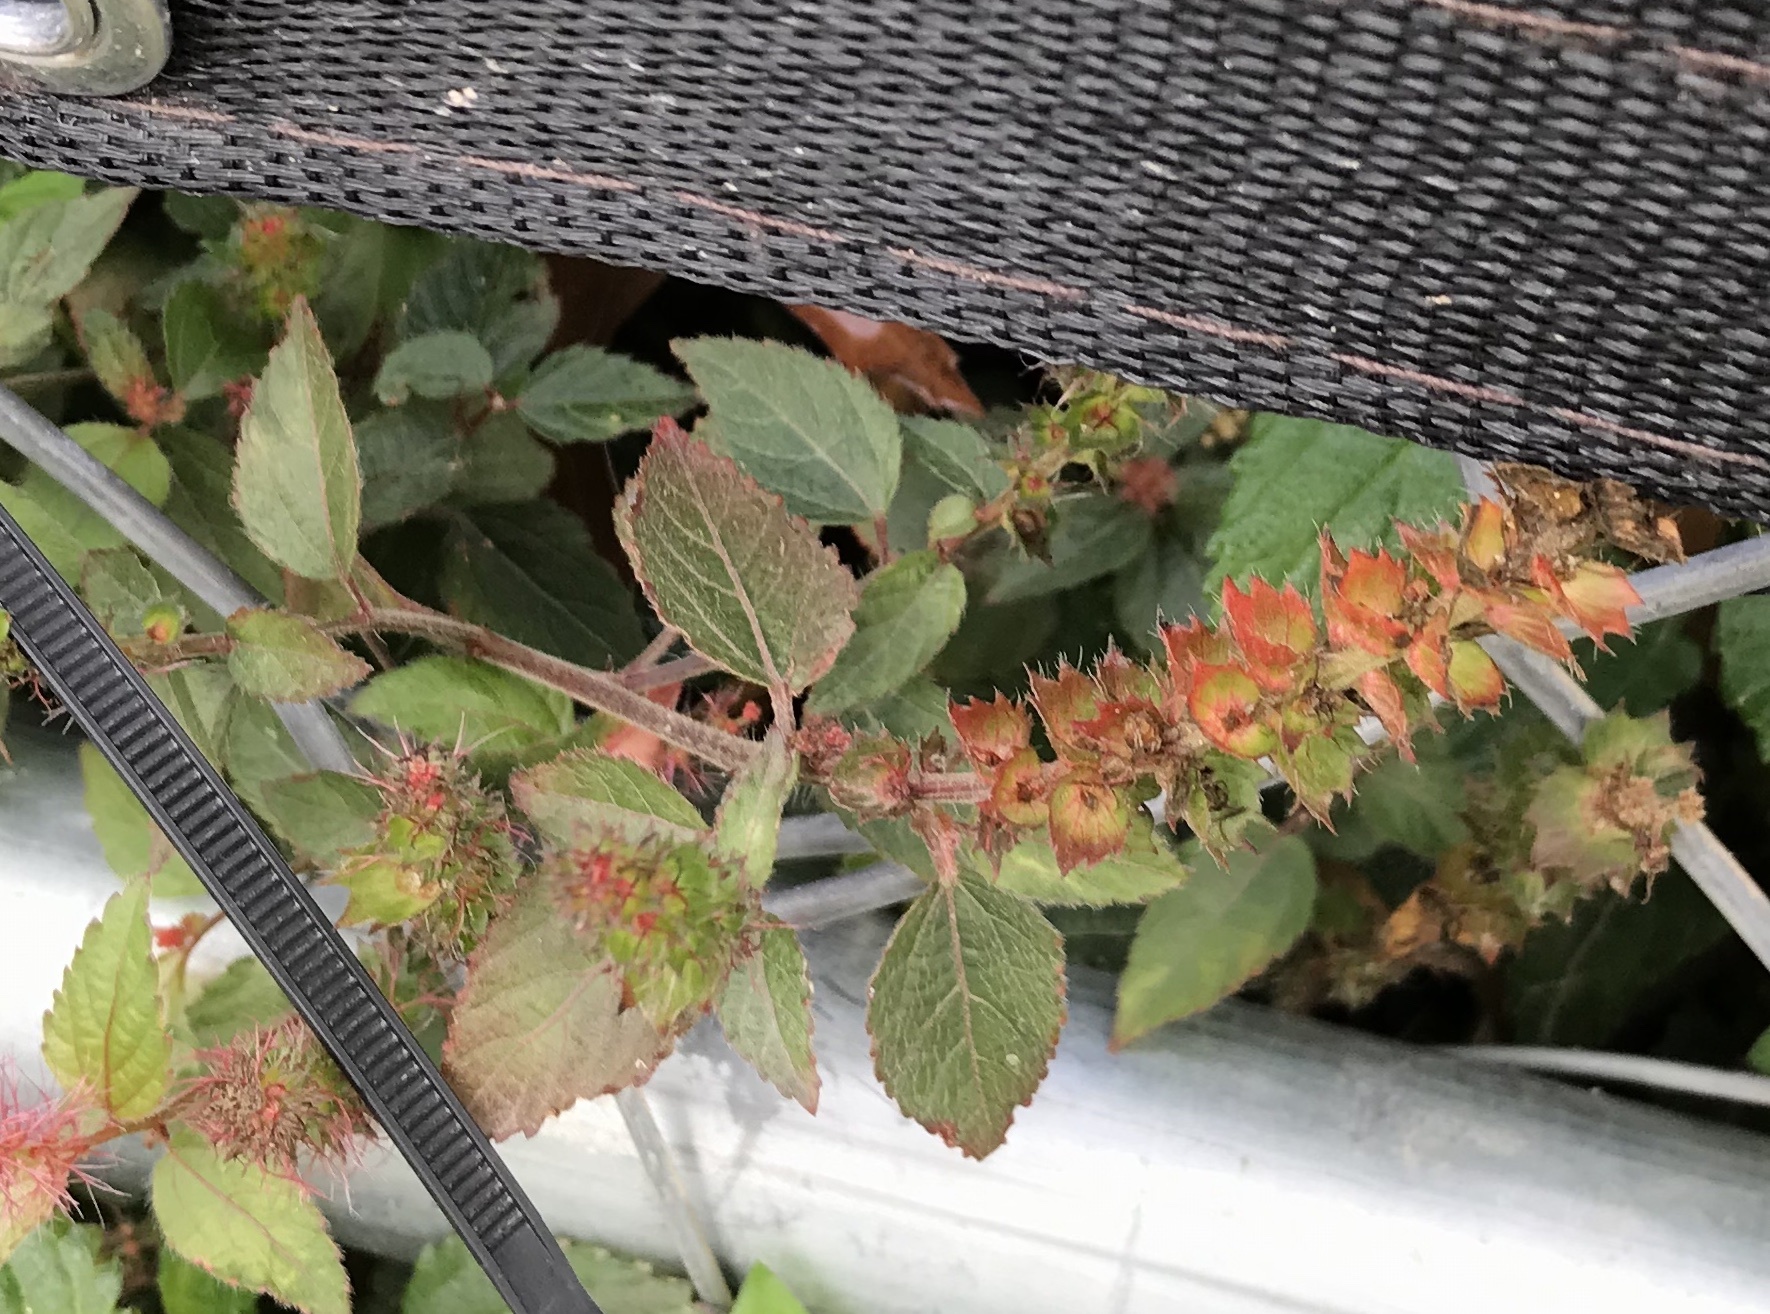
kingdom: Plantae
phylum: Tracheophyta
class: Magnoliopsida
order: Malpighiales
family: Euphorbiaceae
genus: Acalypha
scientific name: Acalypha phleoides
